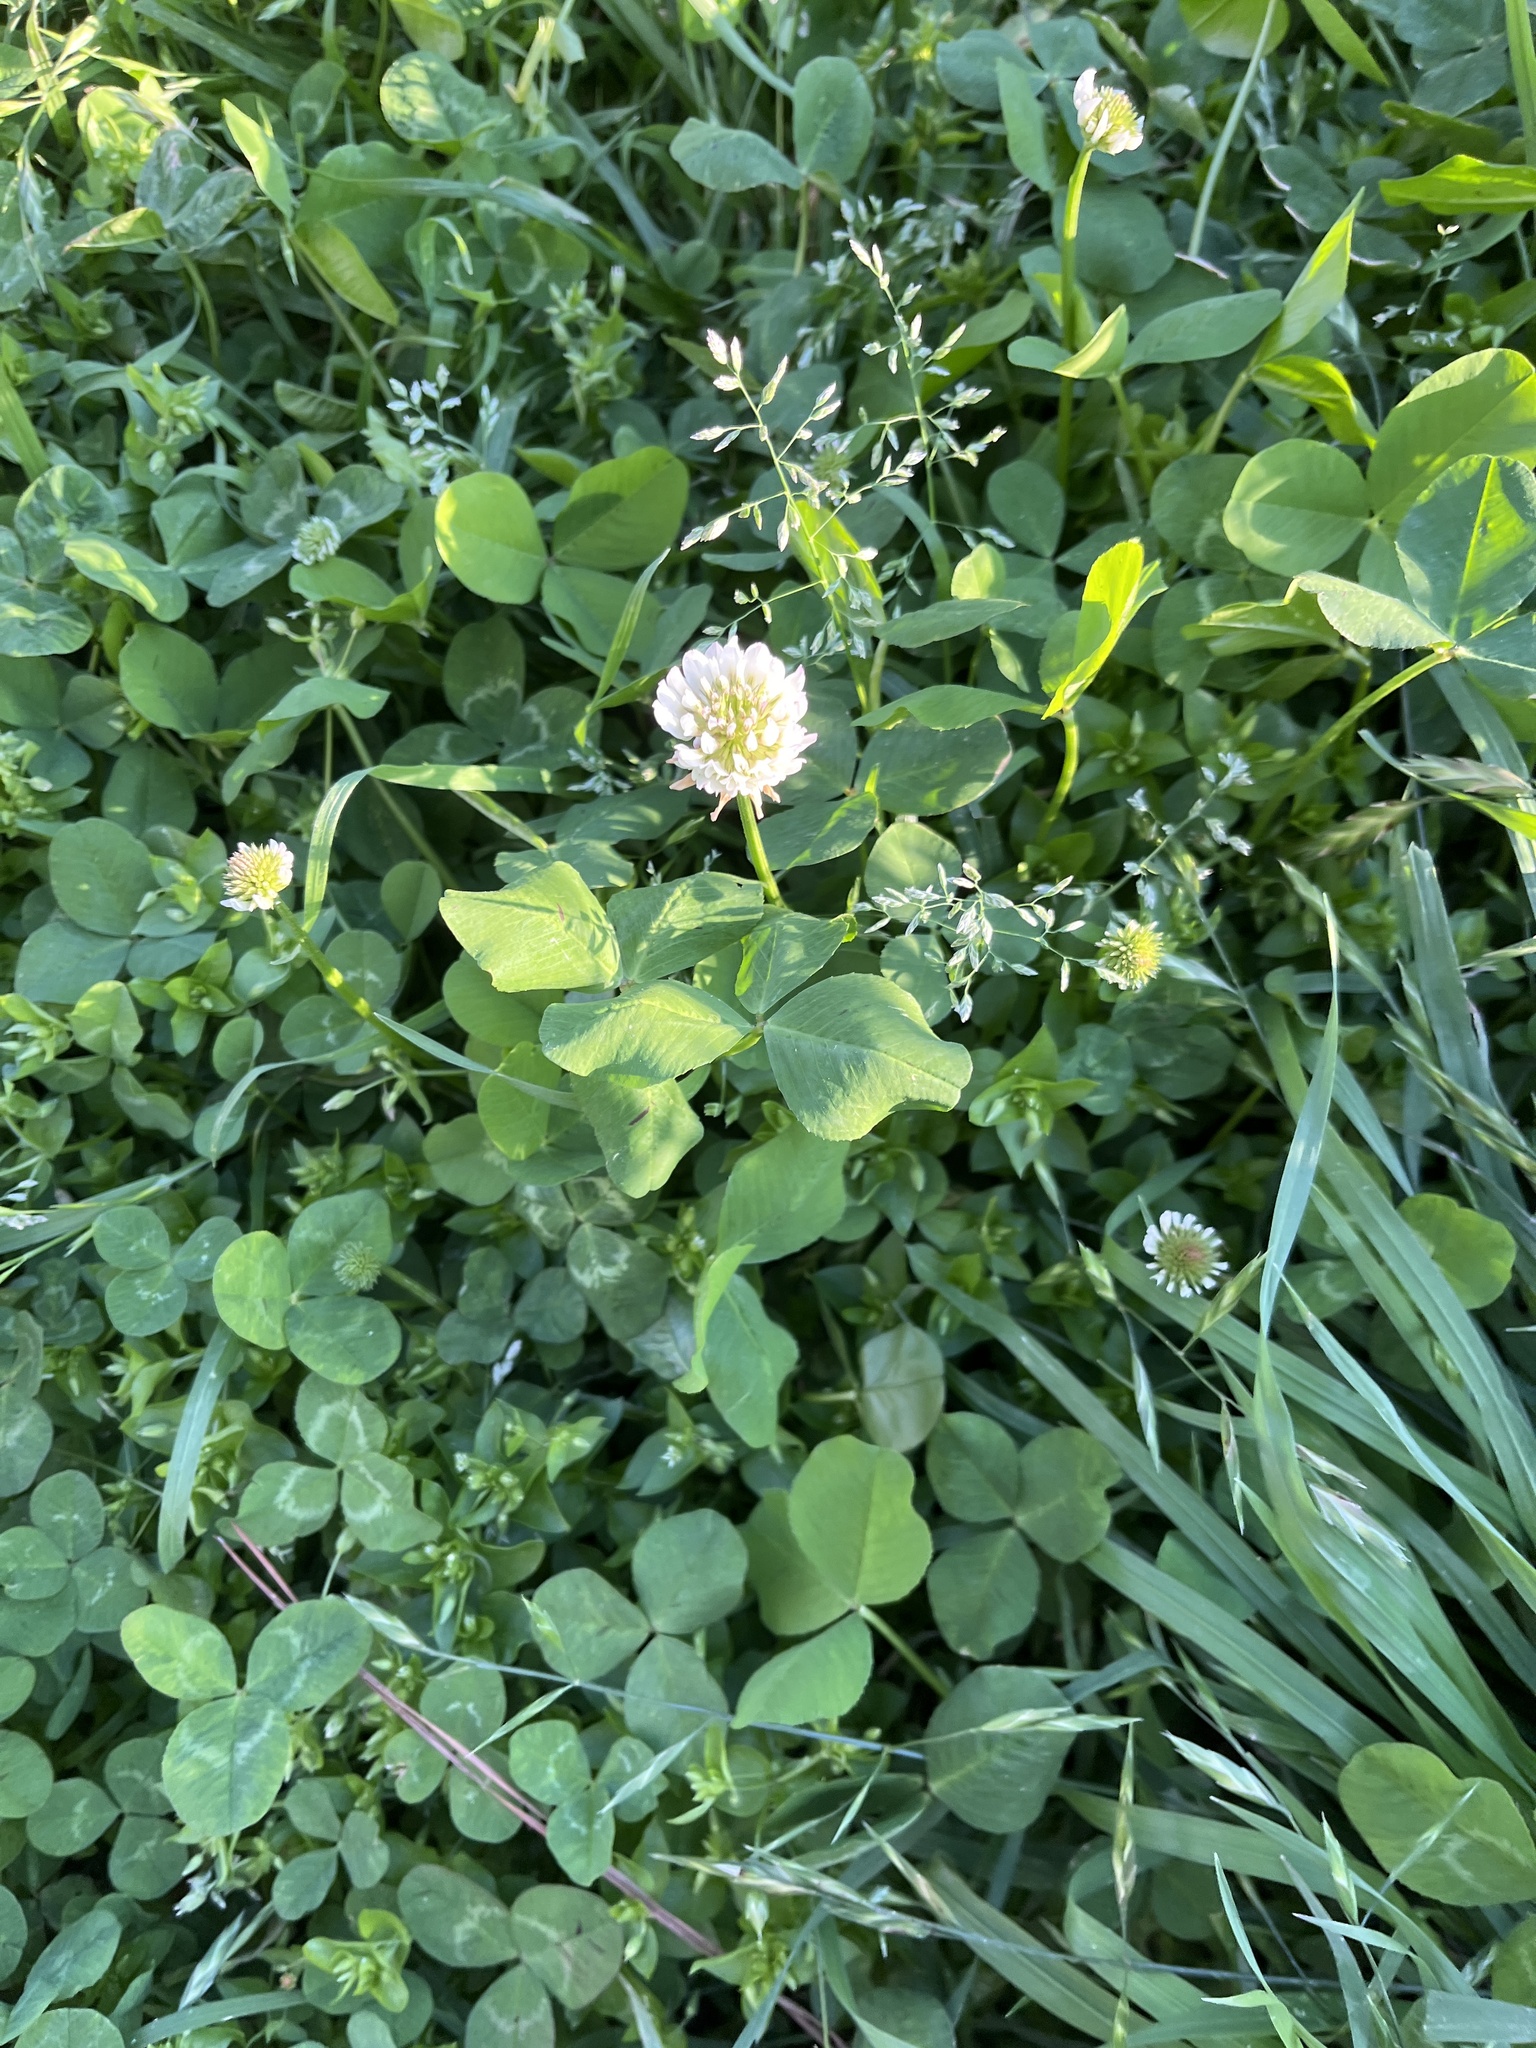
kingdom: Plantae
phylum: Tracheophyta
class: Magnoliopsida
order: Fabales
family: Fabaceae
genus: Trifolium
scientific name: Trifolium repens
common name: White clover
